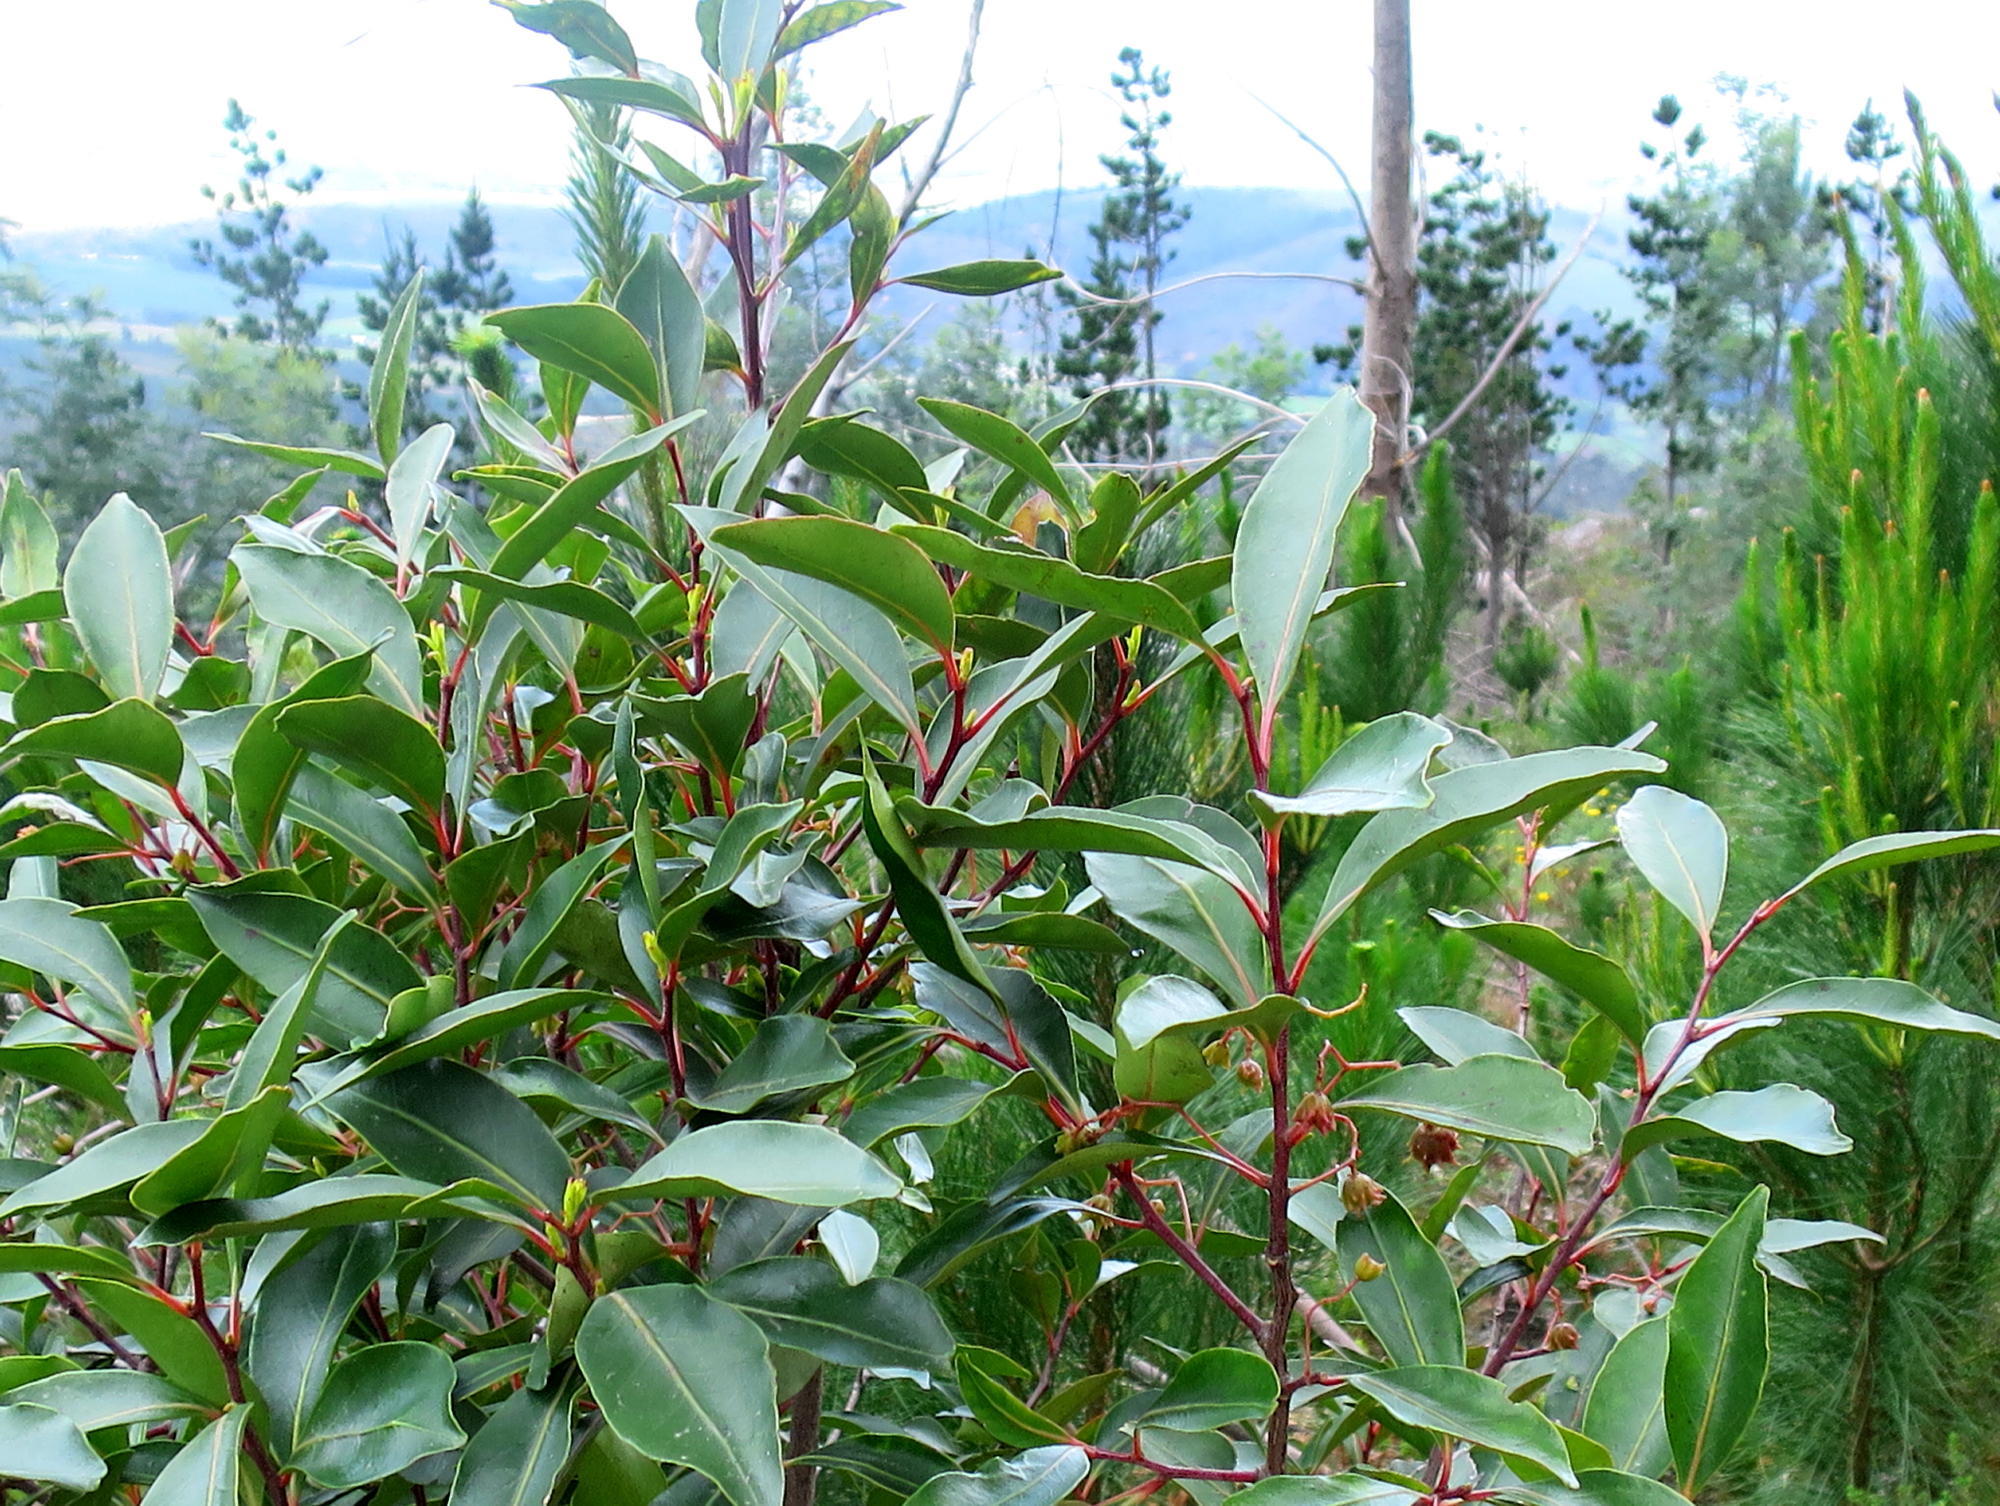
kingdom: Plantae
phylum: Tracheophyta
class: Magnoliopsida
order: Celastrales
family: Celastraceae
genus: Pterocelastrus
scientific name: Pterocelastrus rostratus
